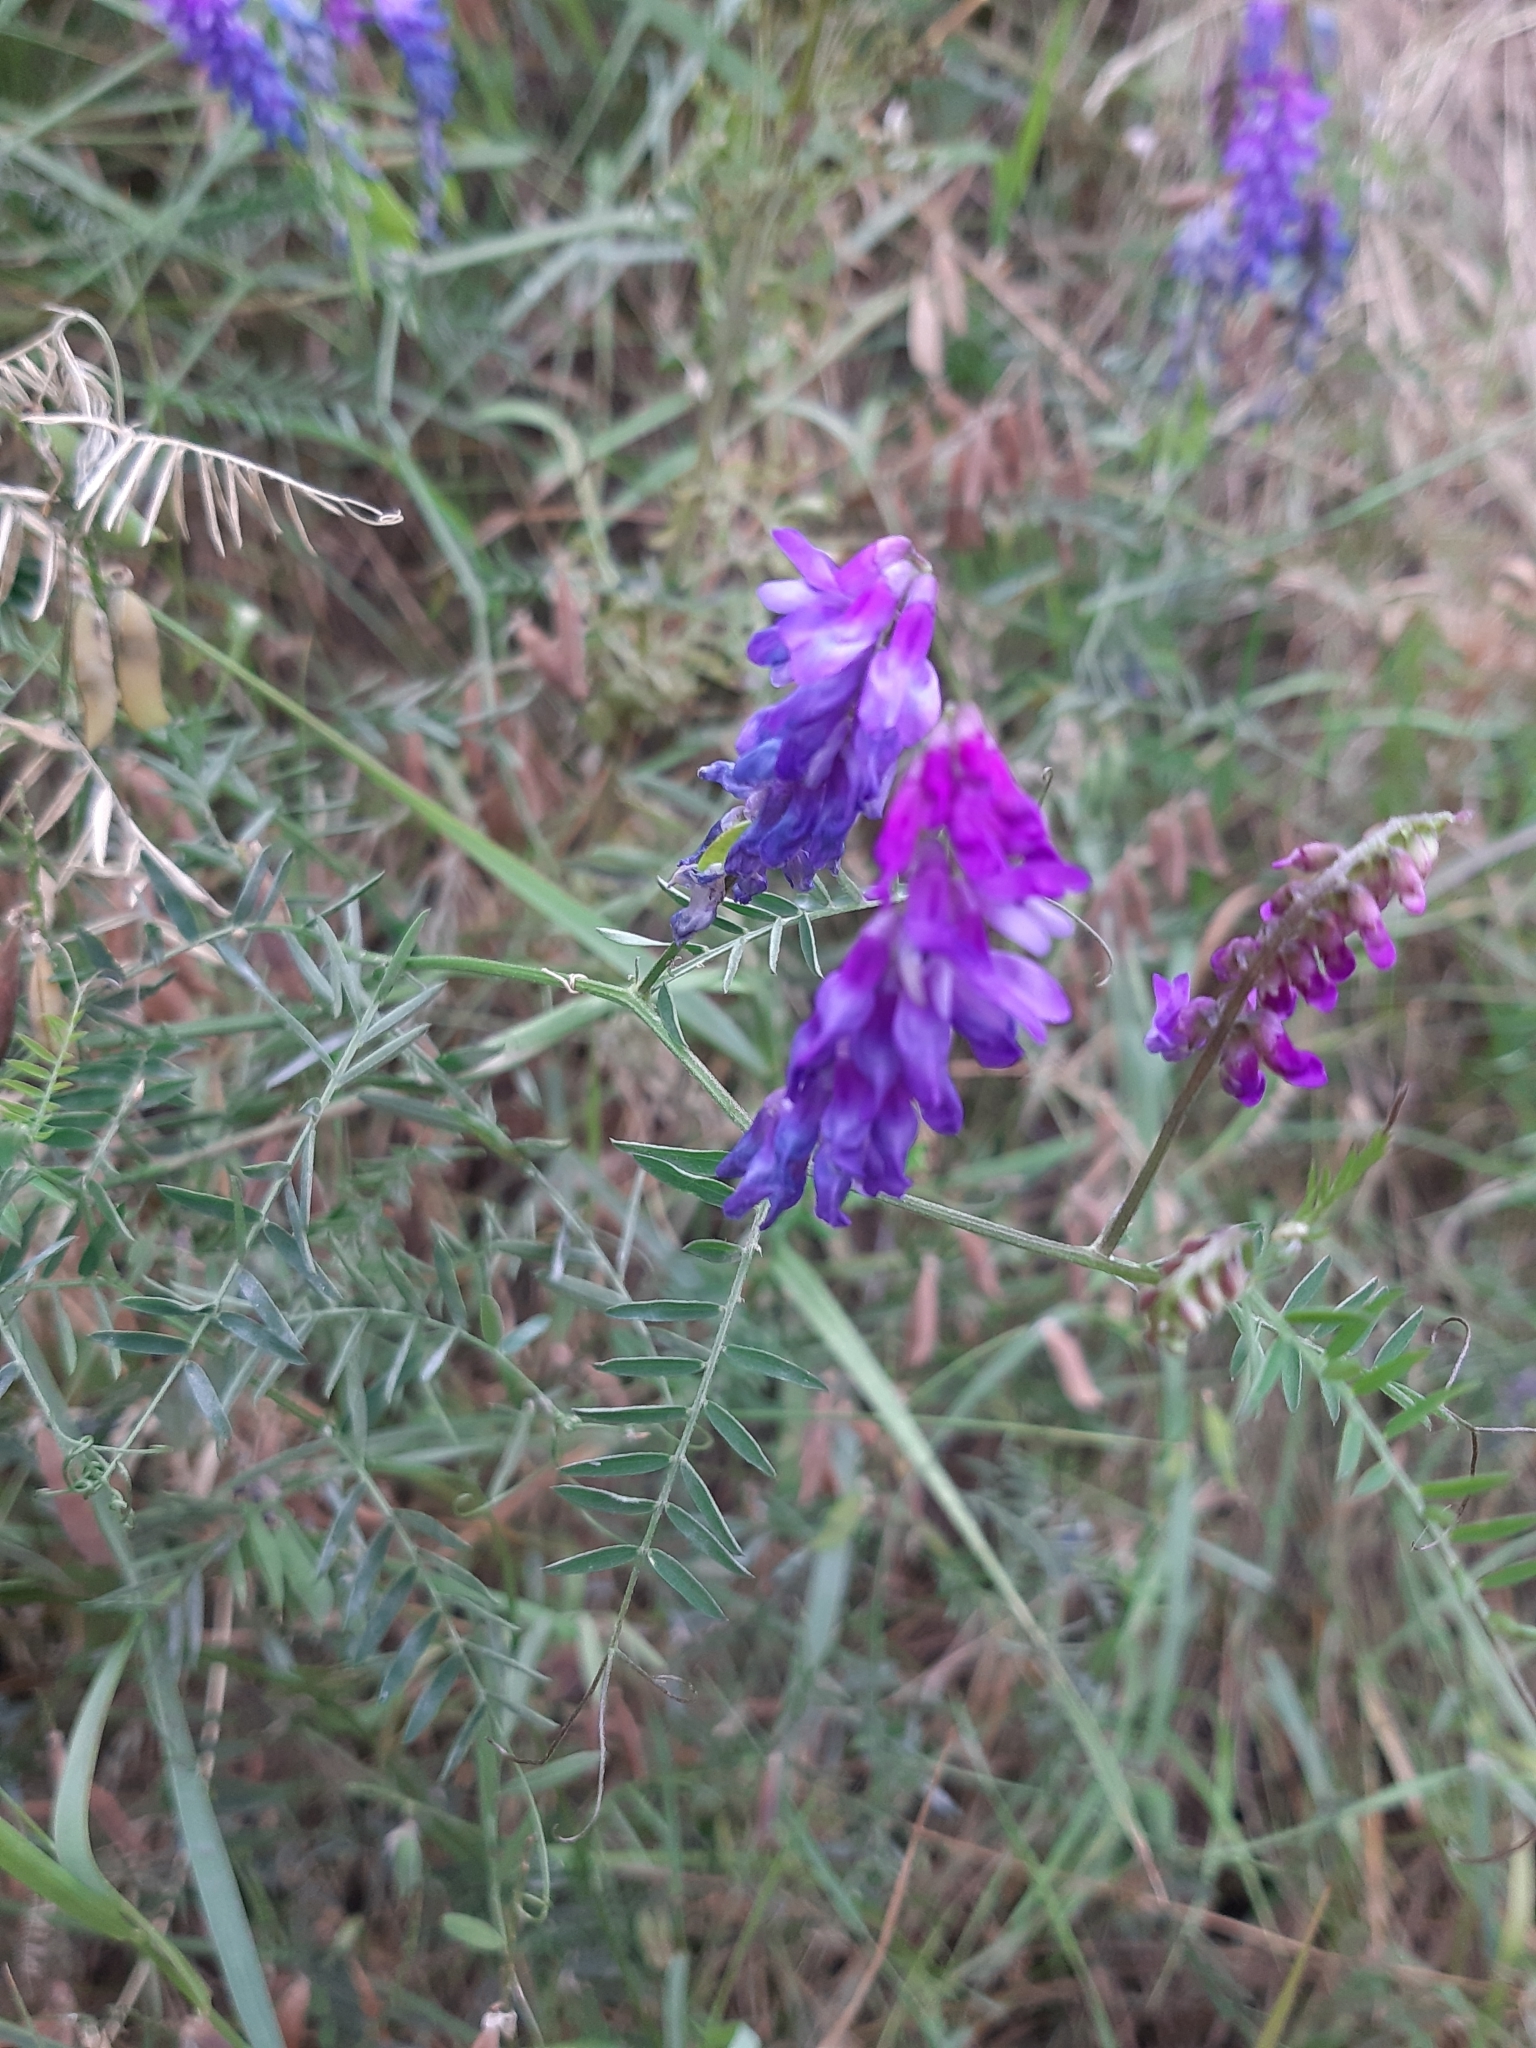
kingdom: Plantae
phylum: Tracheophyta
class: Magnoliopsida
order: Fabales
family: Fabaceae
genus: Vicia
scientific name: Vicia cracca
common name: Bird vetch
